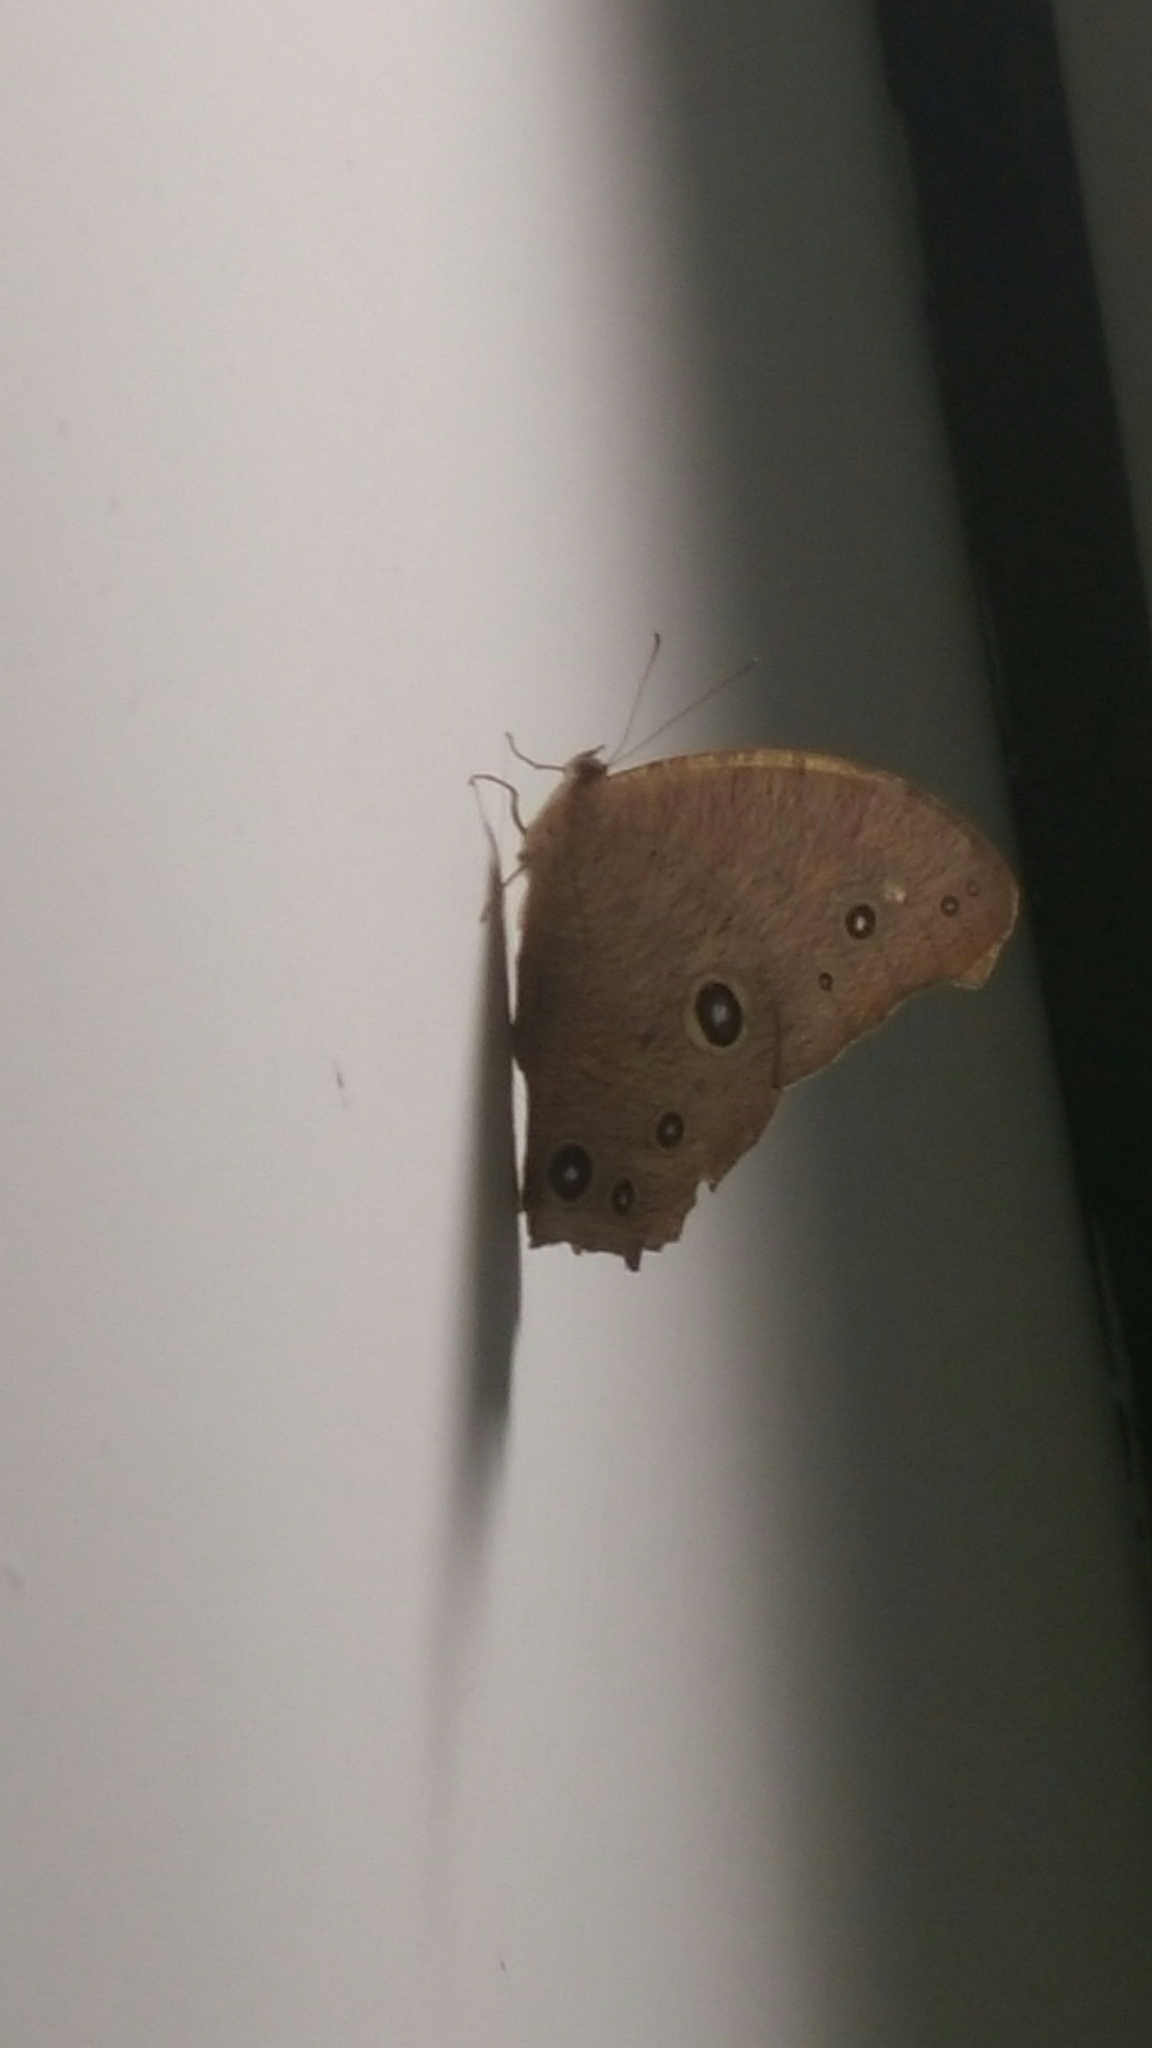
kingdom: Animalia
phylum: Arthropoda
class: Insecta
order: Lepidoptera
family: Nymphalidae
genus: Melanitis
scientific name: Melanitis leda
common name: Twilight brown
